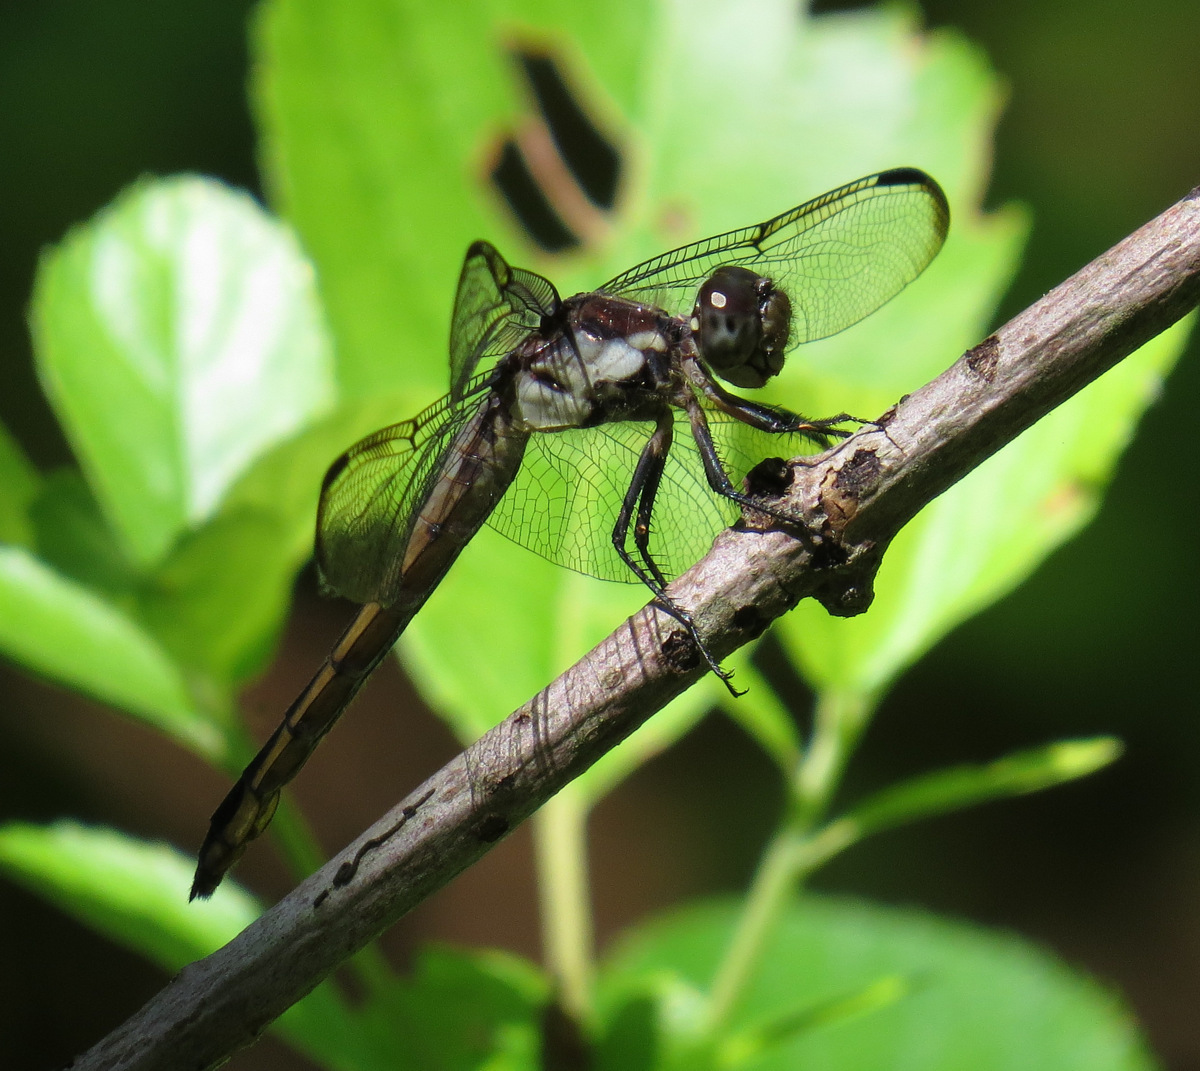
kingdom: Animalia
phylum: Arthropoda
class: Insecta
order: Odonata
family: Libellulidae
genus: Libellula
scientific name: Libellula incesta
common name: Slaty skimmer
